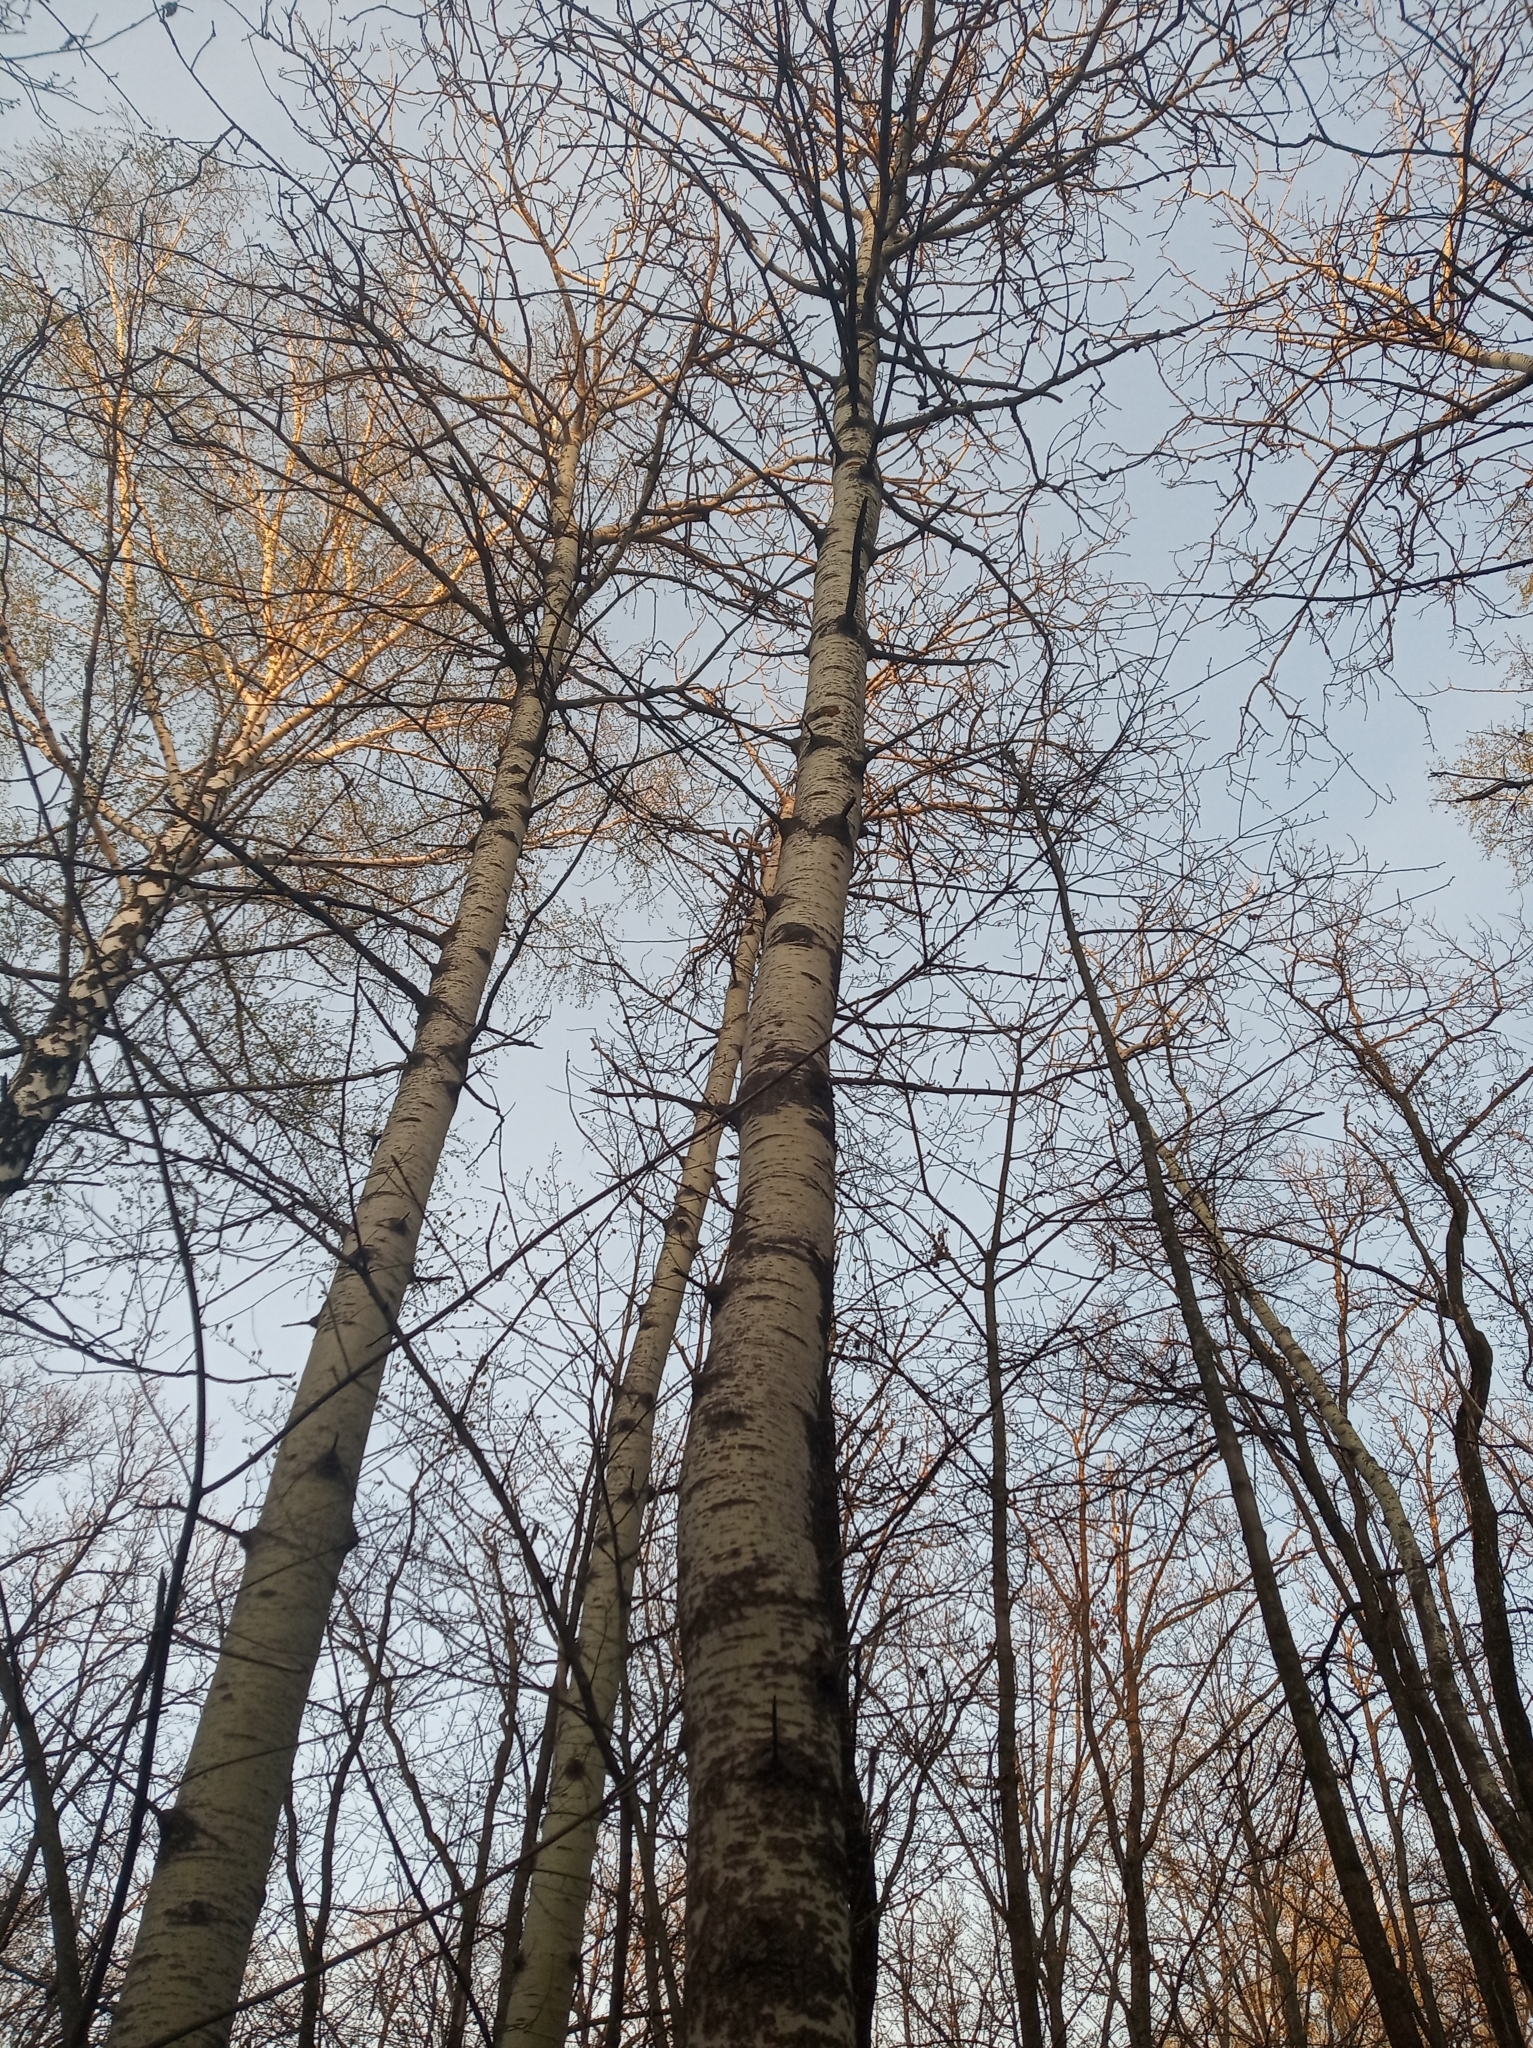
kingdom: Plantae
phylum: Tracheophyta
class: Magnoliopsida
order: Malpighiales
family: Salicaceae
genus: Populus
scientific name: Populus tremula
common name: European aspen
